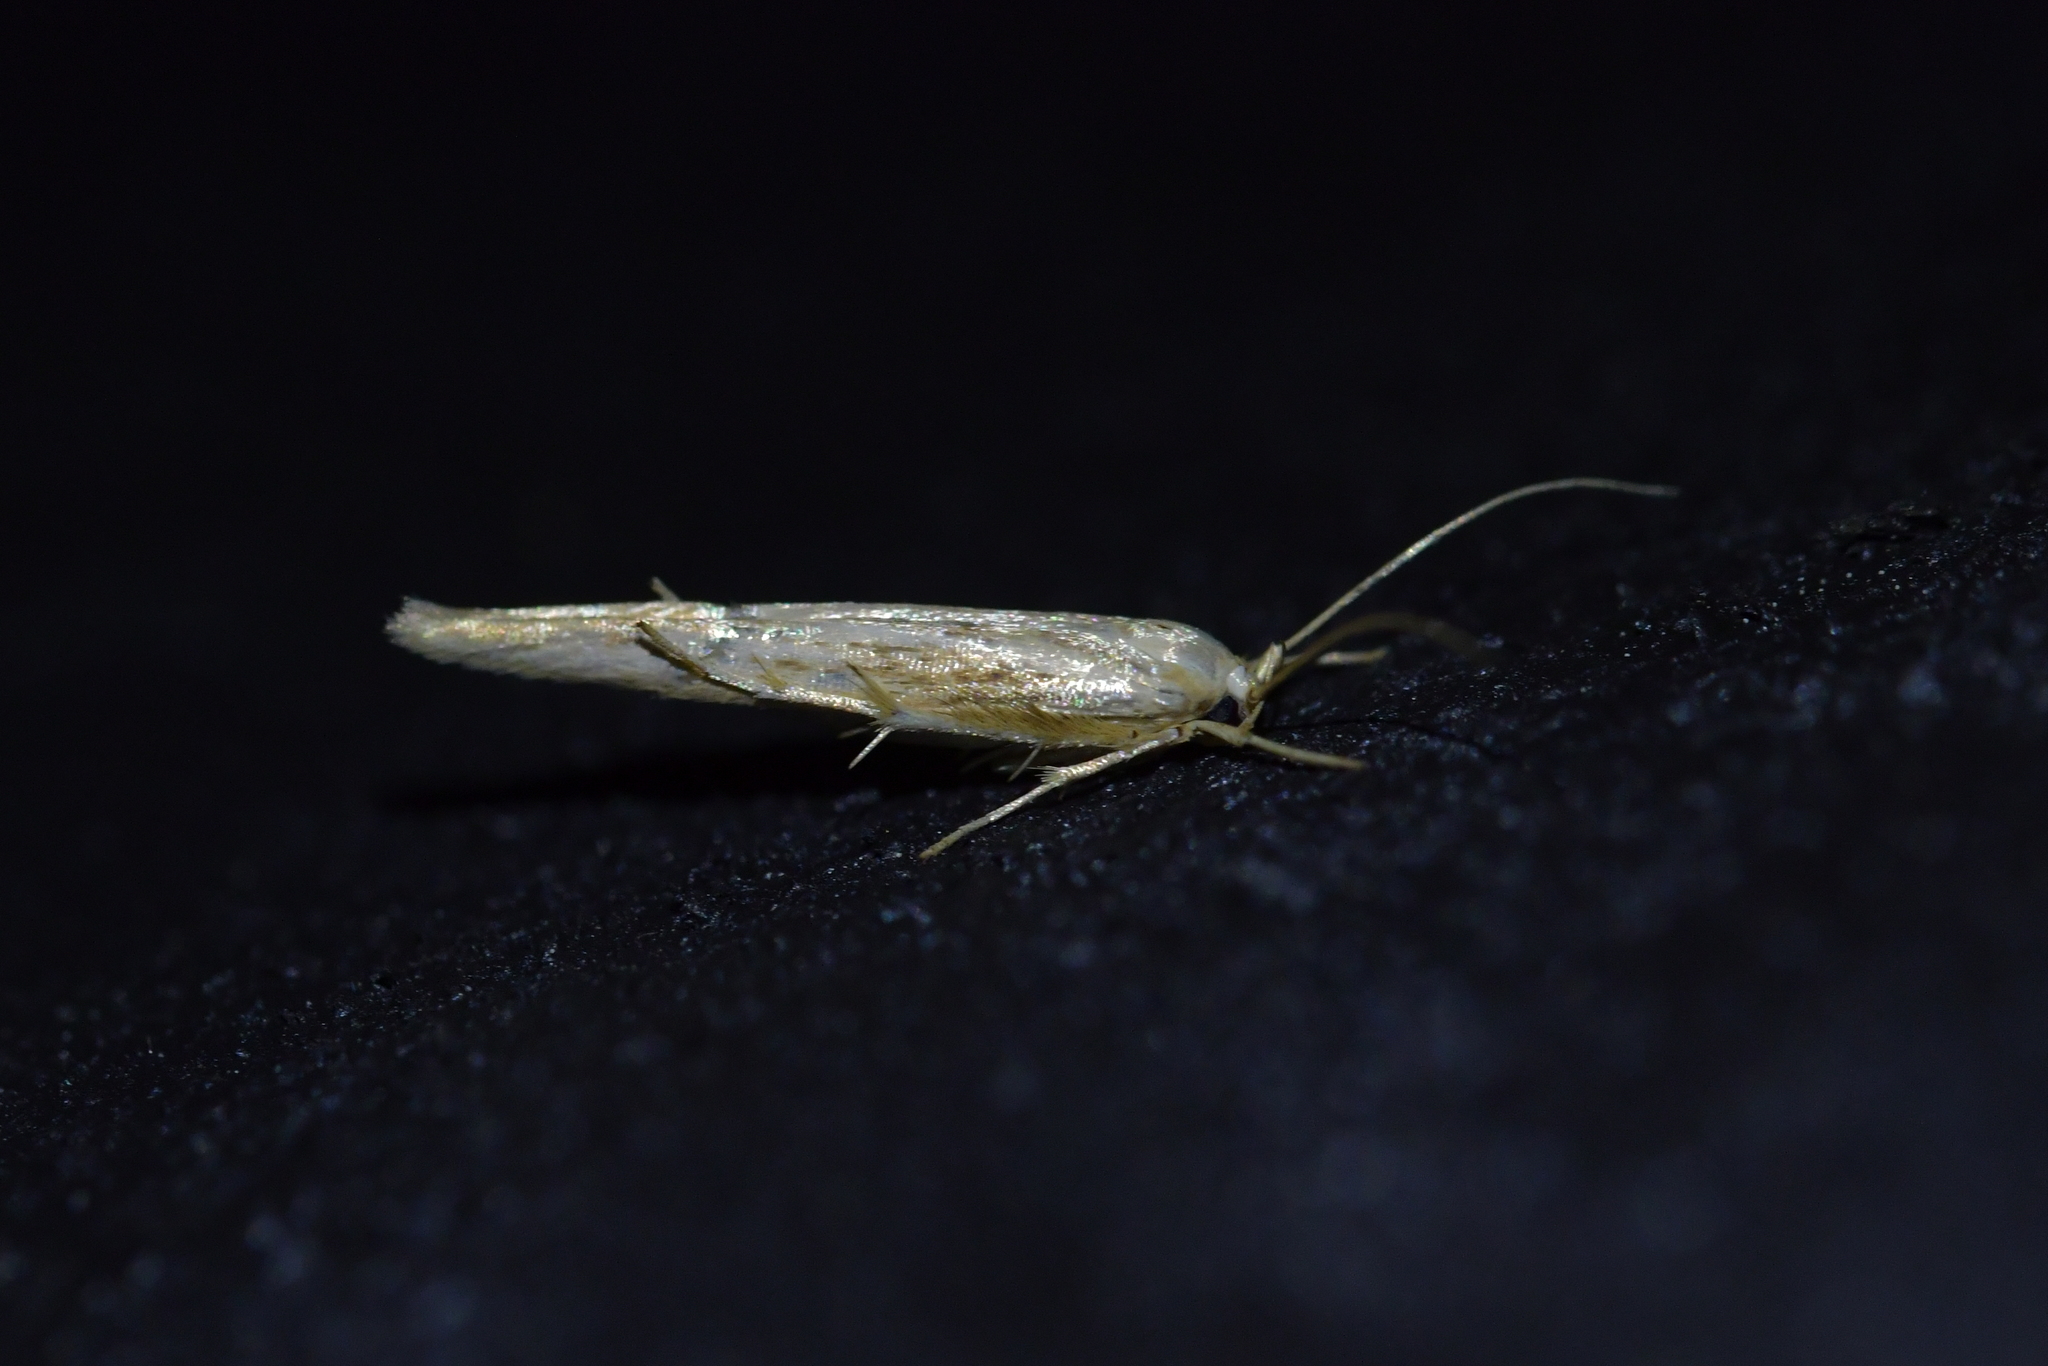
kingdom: Animalia
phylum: Arthropoda
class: Insecta
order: Lepidoptera
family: Stathmopodidae
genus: Stathmopoda
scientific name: Stathmopoda aposema
